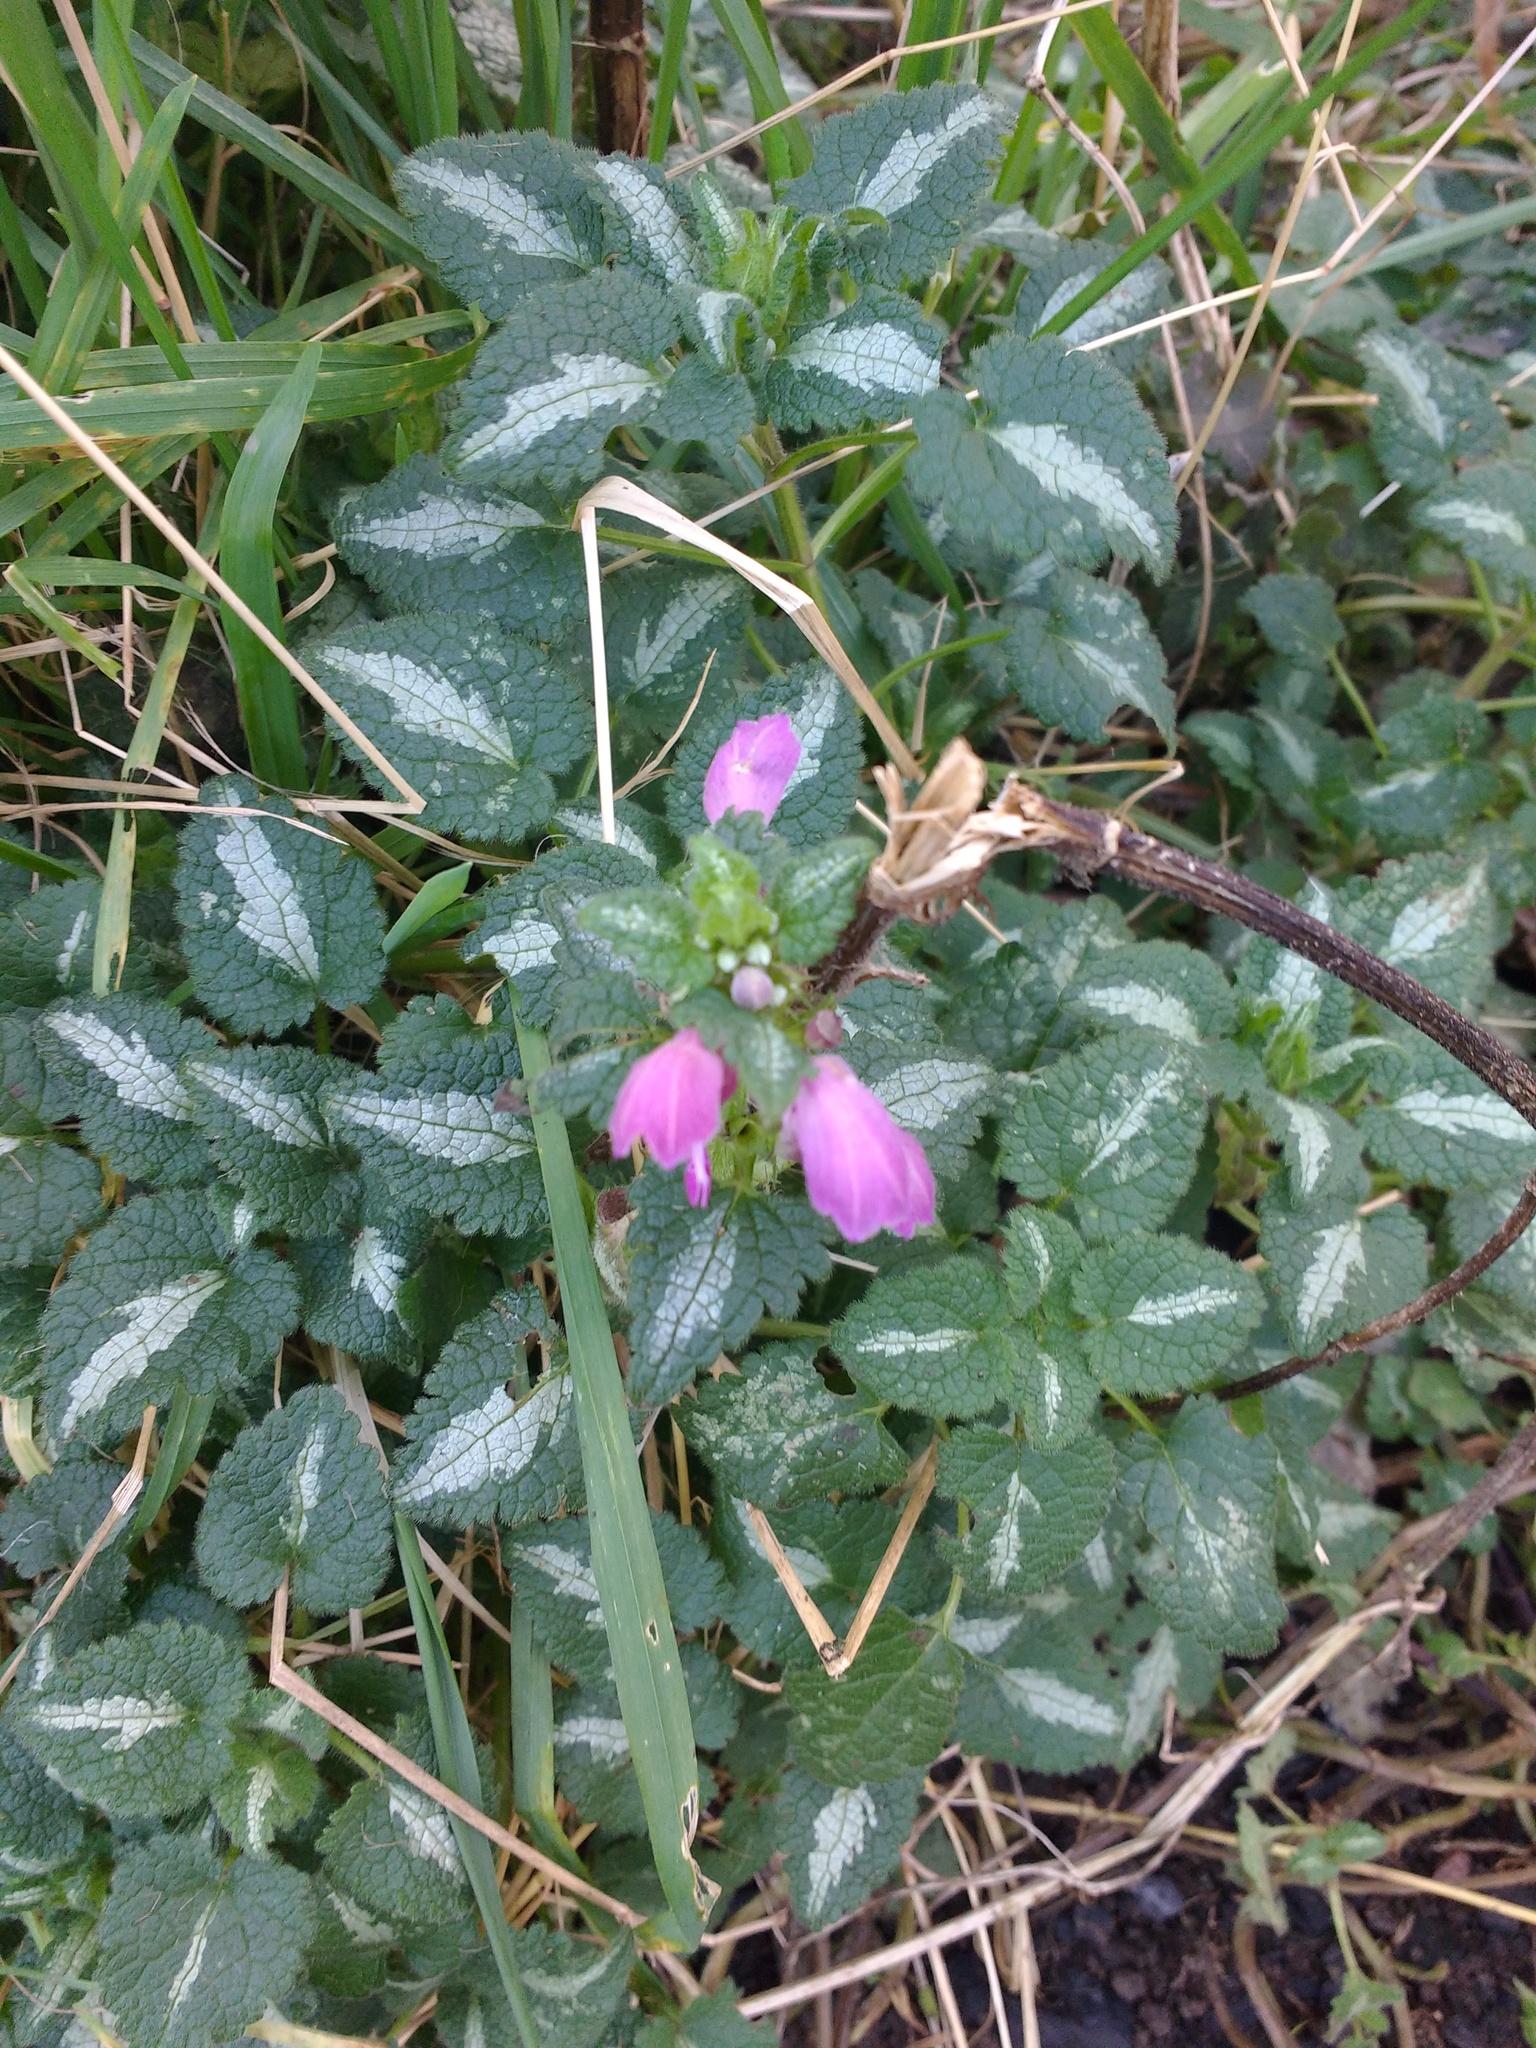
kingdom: Plantae
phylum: Tracheophyta
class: Magnoliopsida
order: Lamiales
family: Lamiaceae
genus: Lamium
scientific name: Lamium maculatum
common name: Spotted dead-nettle
